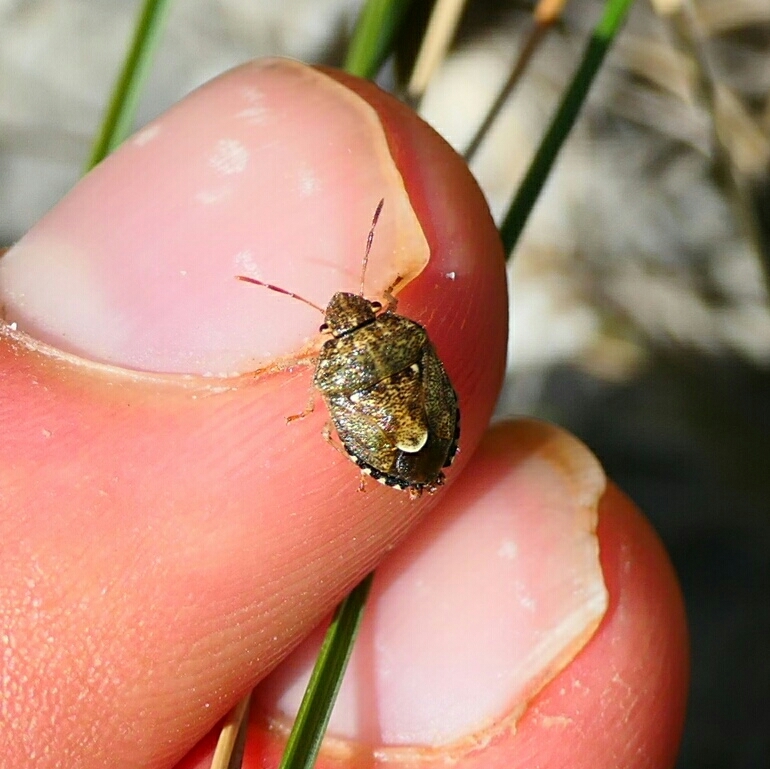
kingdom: Animalia
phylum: Arthropoda
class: Insecta
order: Hemiptera
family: Pentatomidae
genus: Staria
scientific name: Staria lunata
